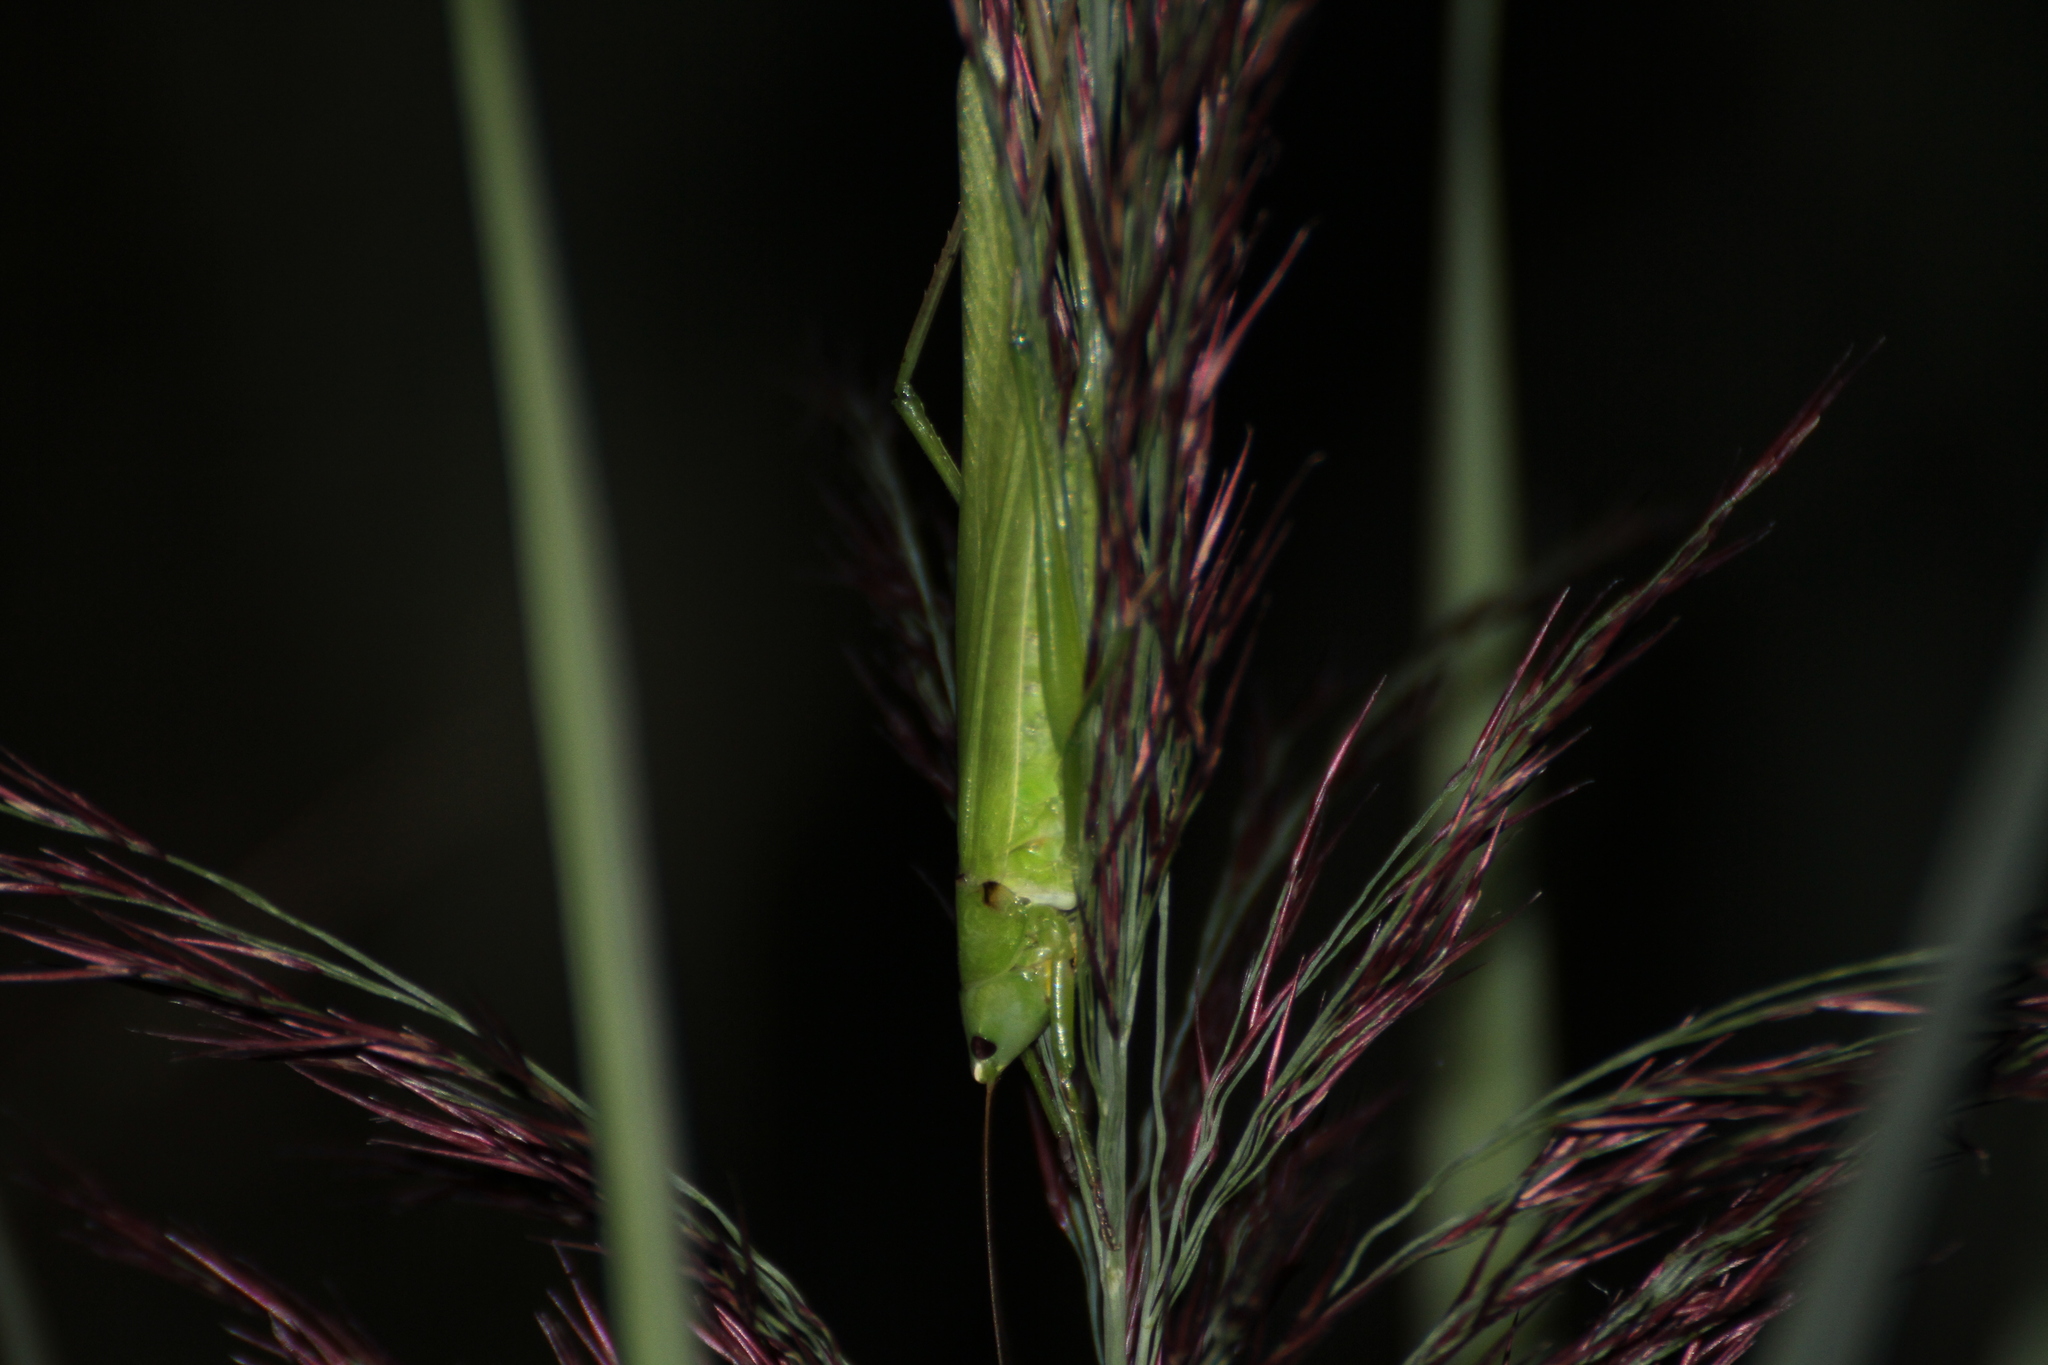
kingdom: Animalia
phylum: Arthropoda
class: Insecta
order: Orthoptera
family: Tettigoniidae
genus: Ruspolia
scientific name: Ruspolia nitidula
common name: Large conehead
